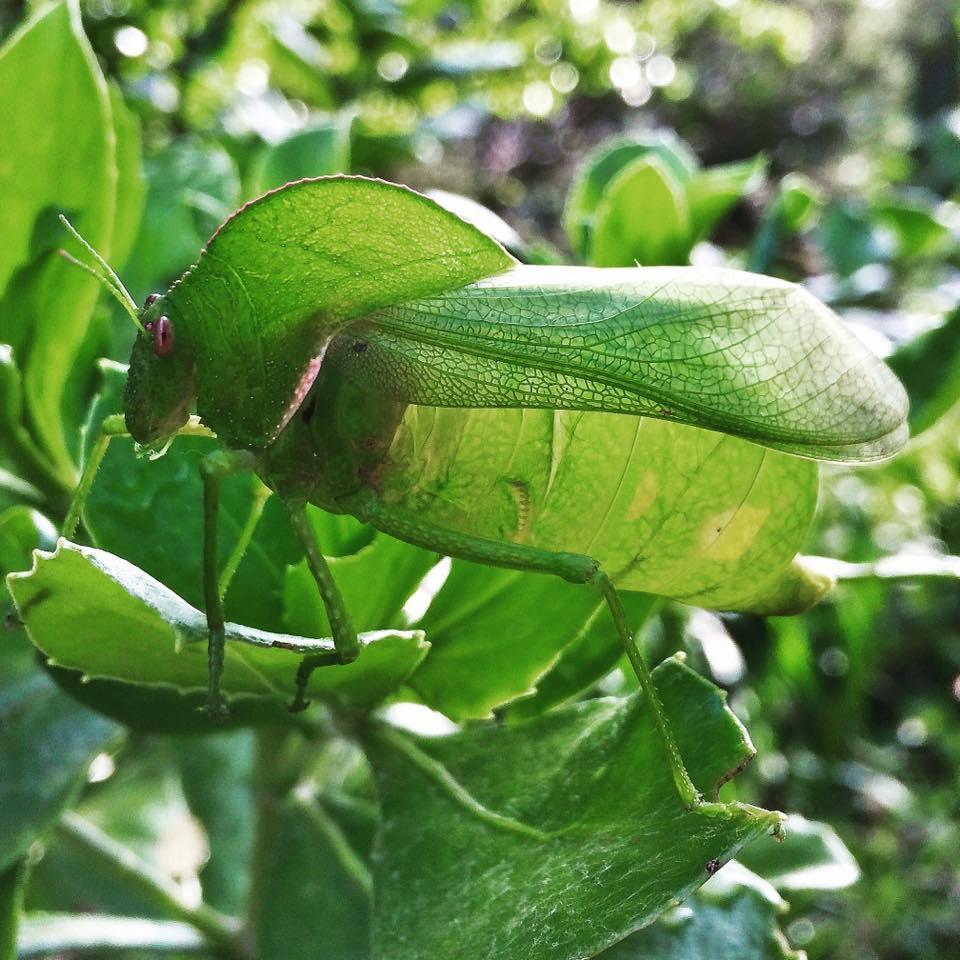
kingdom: Animalia
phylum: Arthropoda
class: Insecta
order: Orthoptera
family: Pneumoridae
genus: Bullacris
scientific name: Bullacris membracioides
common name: Bishop
